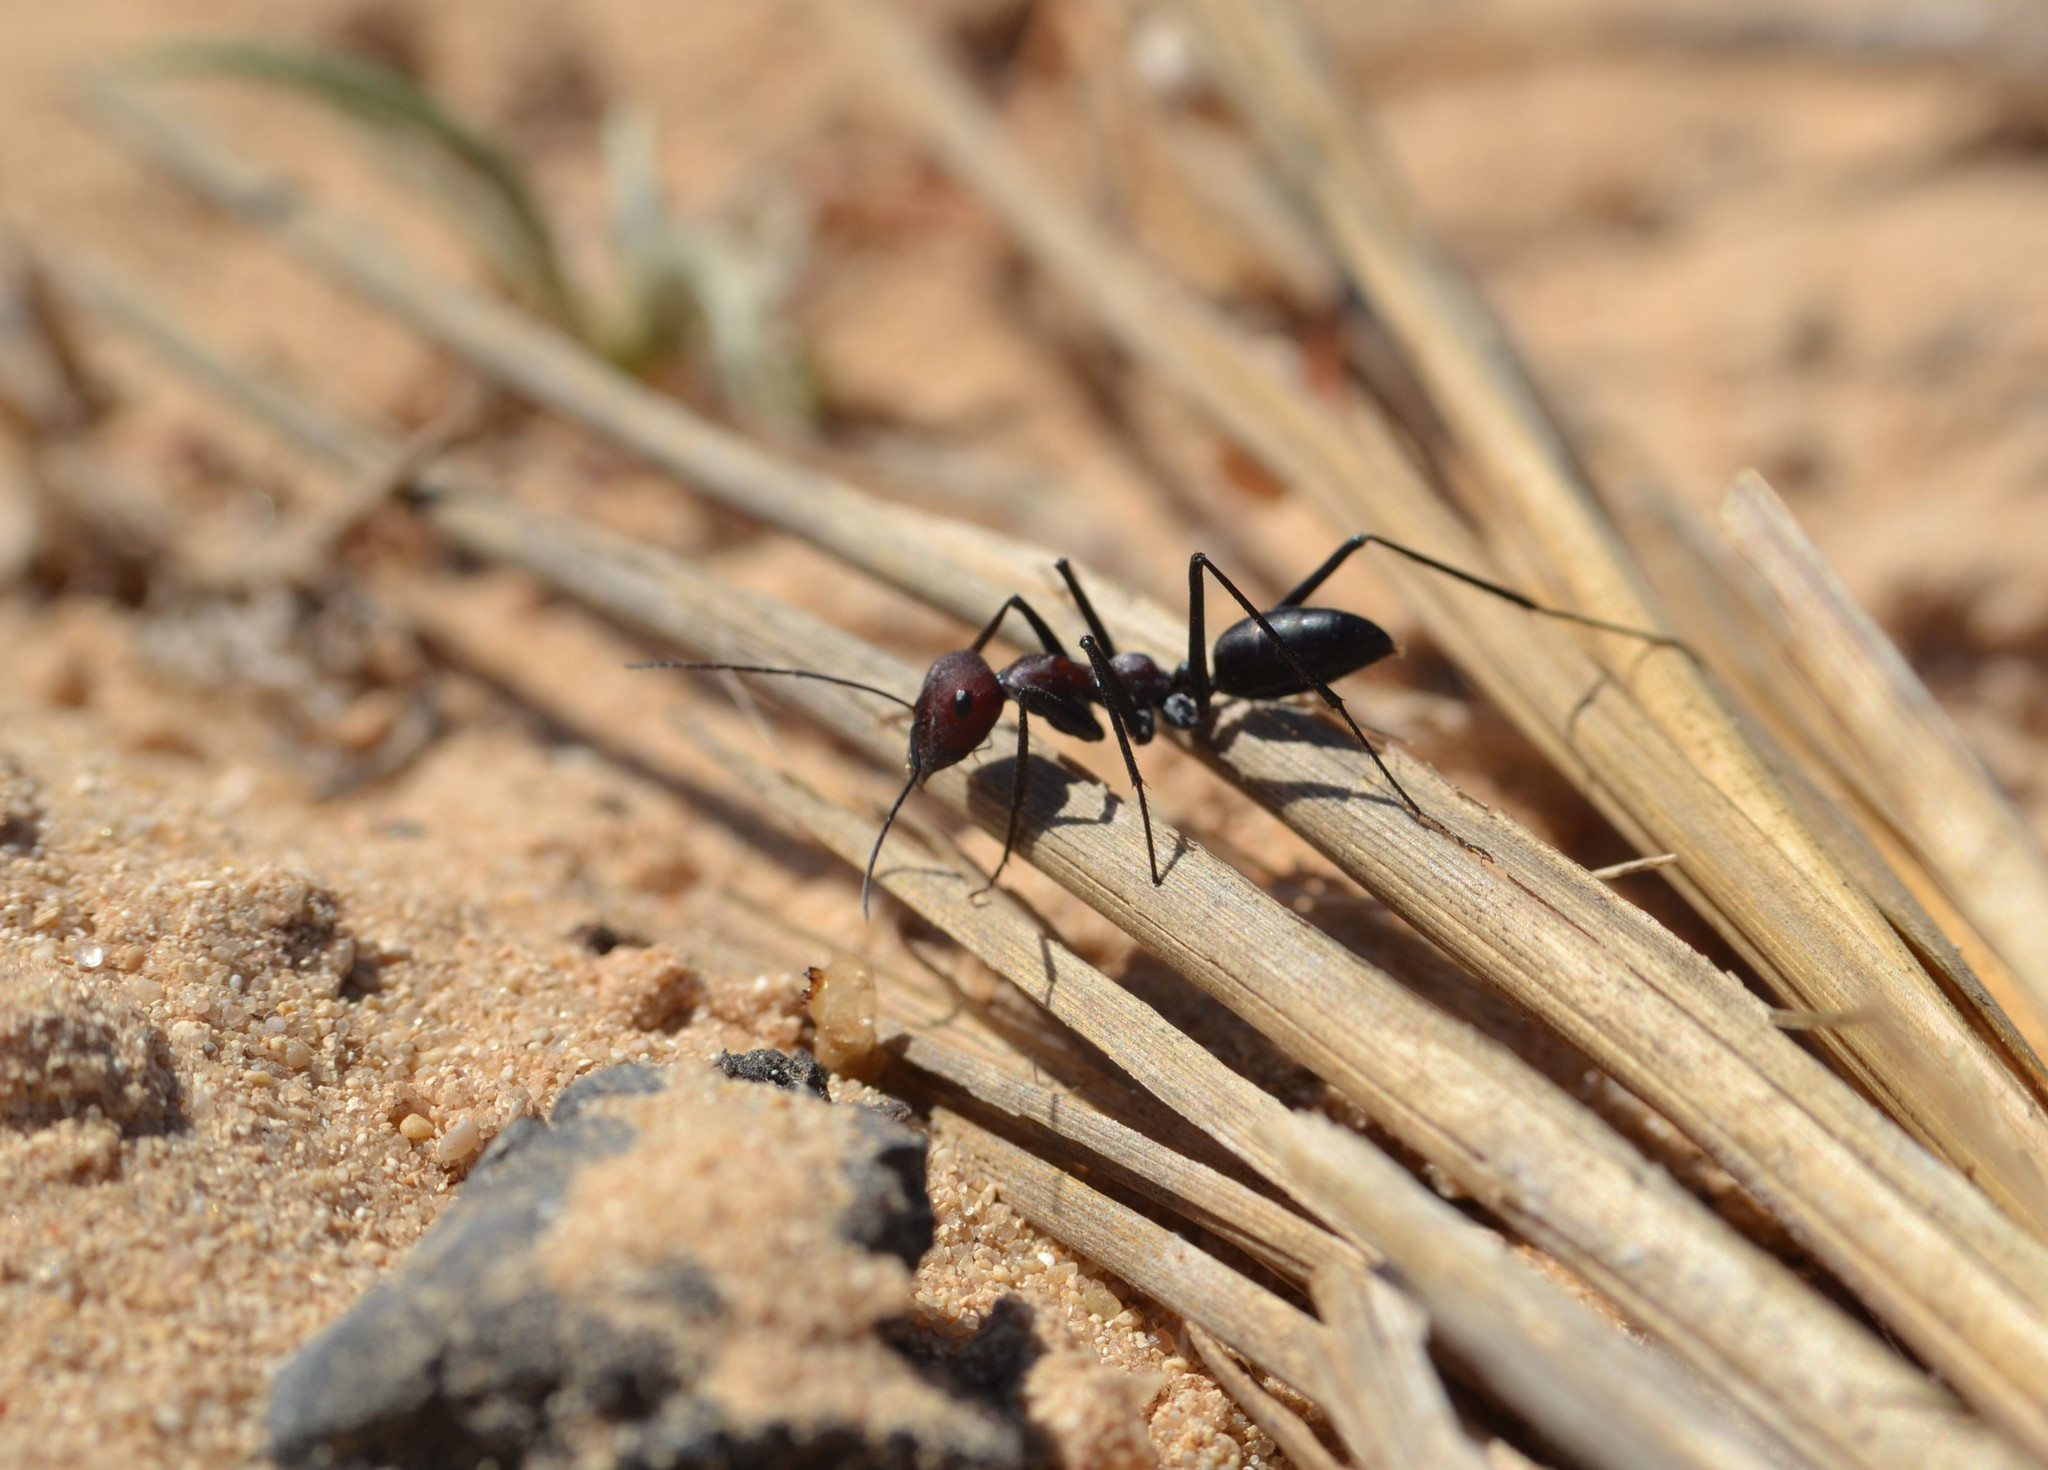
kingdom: Animalia
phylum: Arthropoda
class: Insecta
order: Hymenoptera
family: Formicidae
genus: Cataglyphis
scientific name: Cataglyphis savignyi
